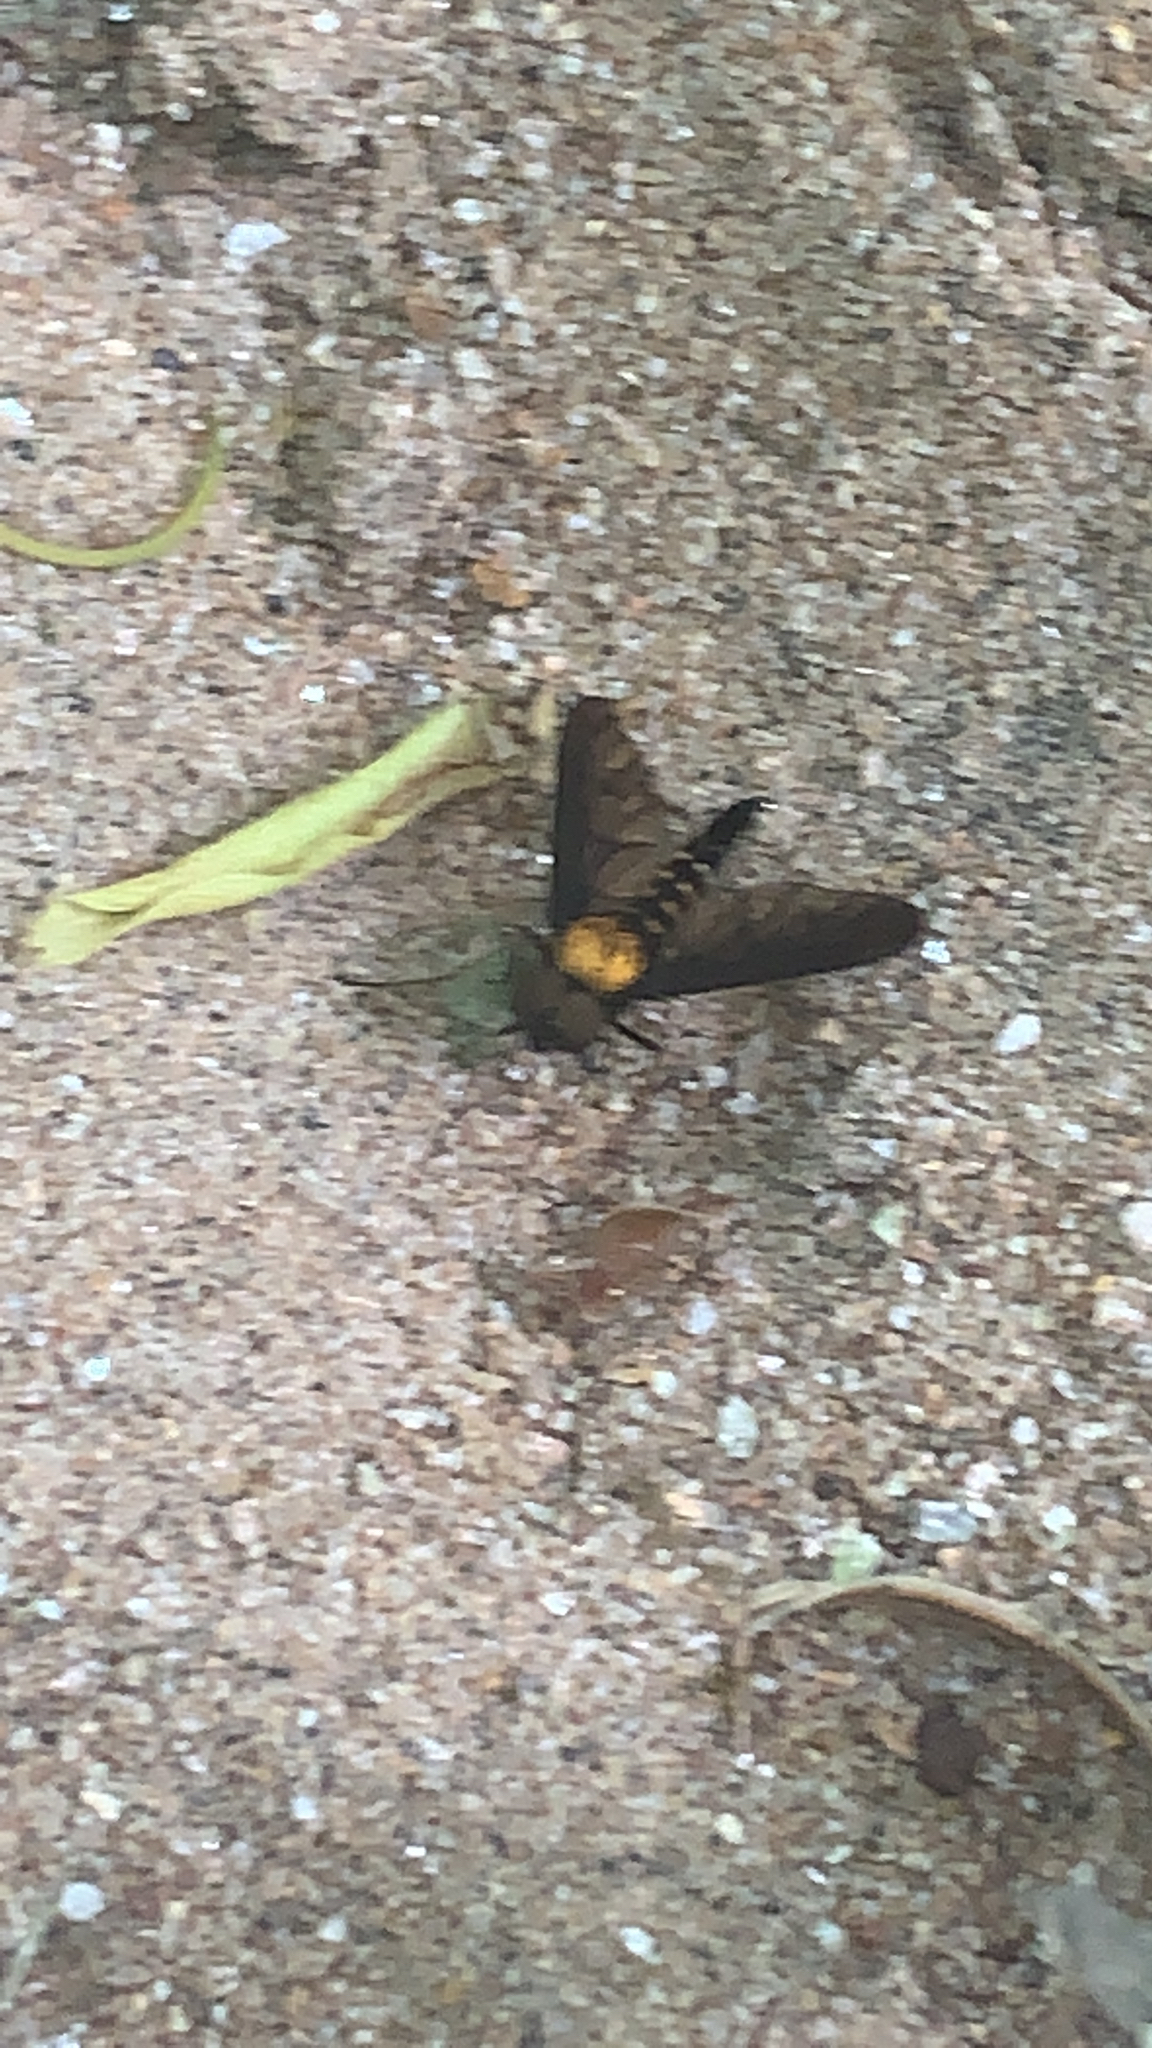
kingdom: Animalia
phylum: Arthropoda
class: Insecta
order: Diptera
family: Rhagionidae
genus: Chrysopilus
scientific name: Chrysopilus thoracicus
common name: Golden-backed snipe fly
